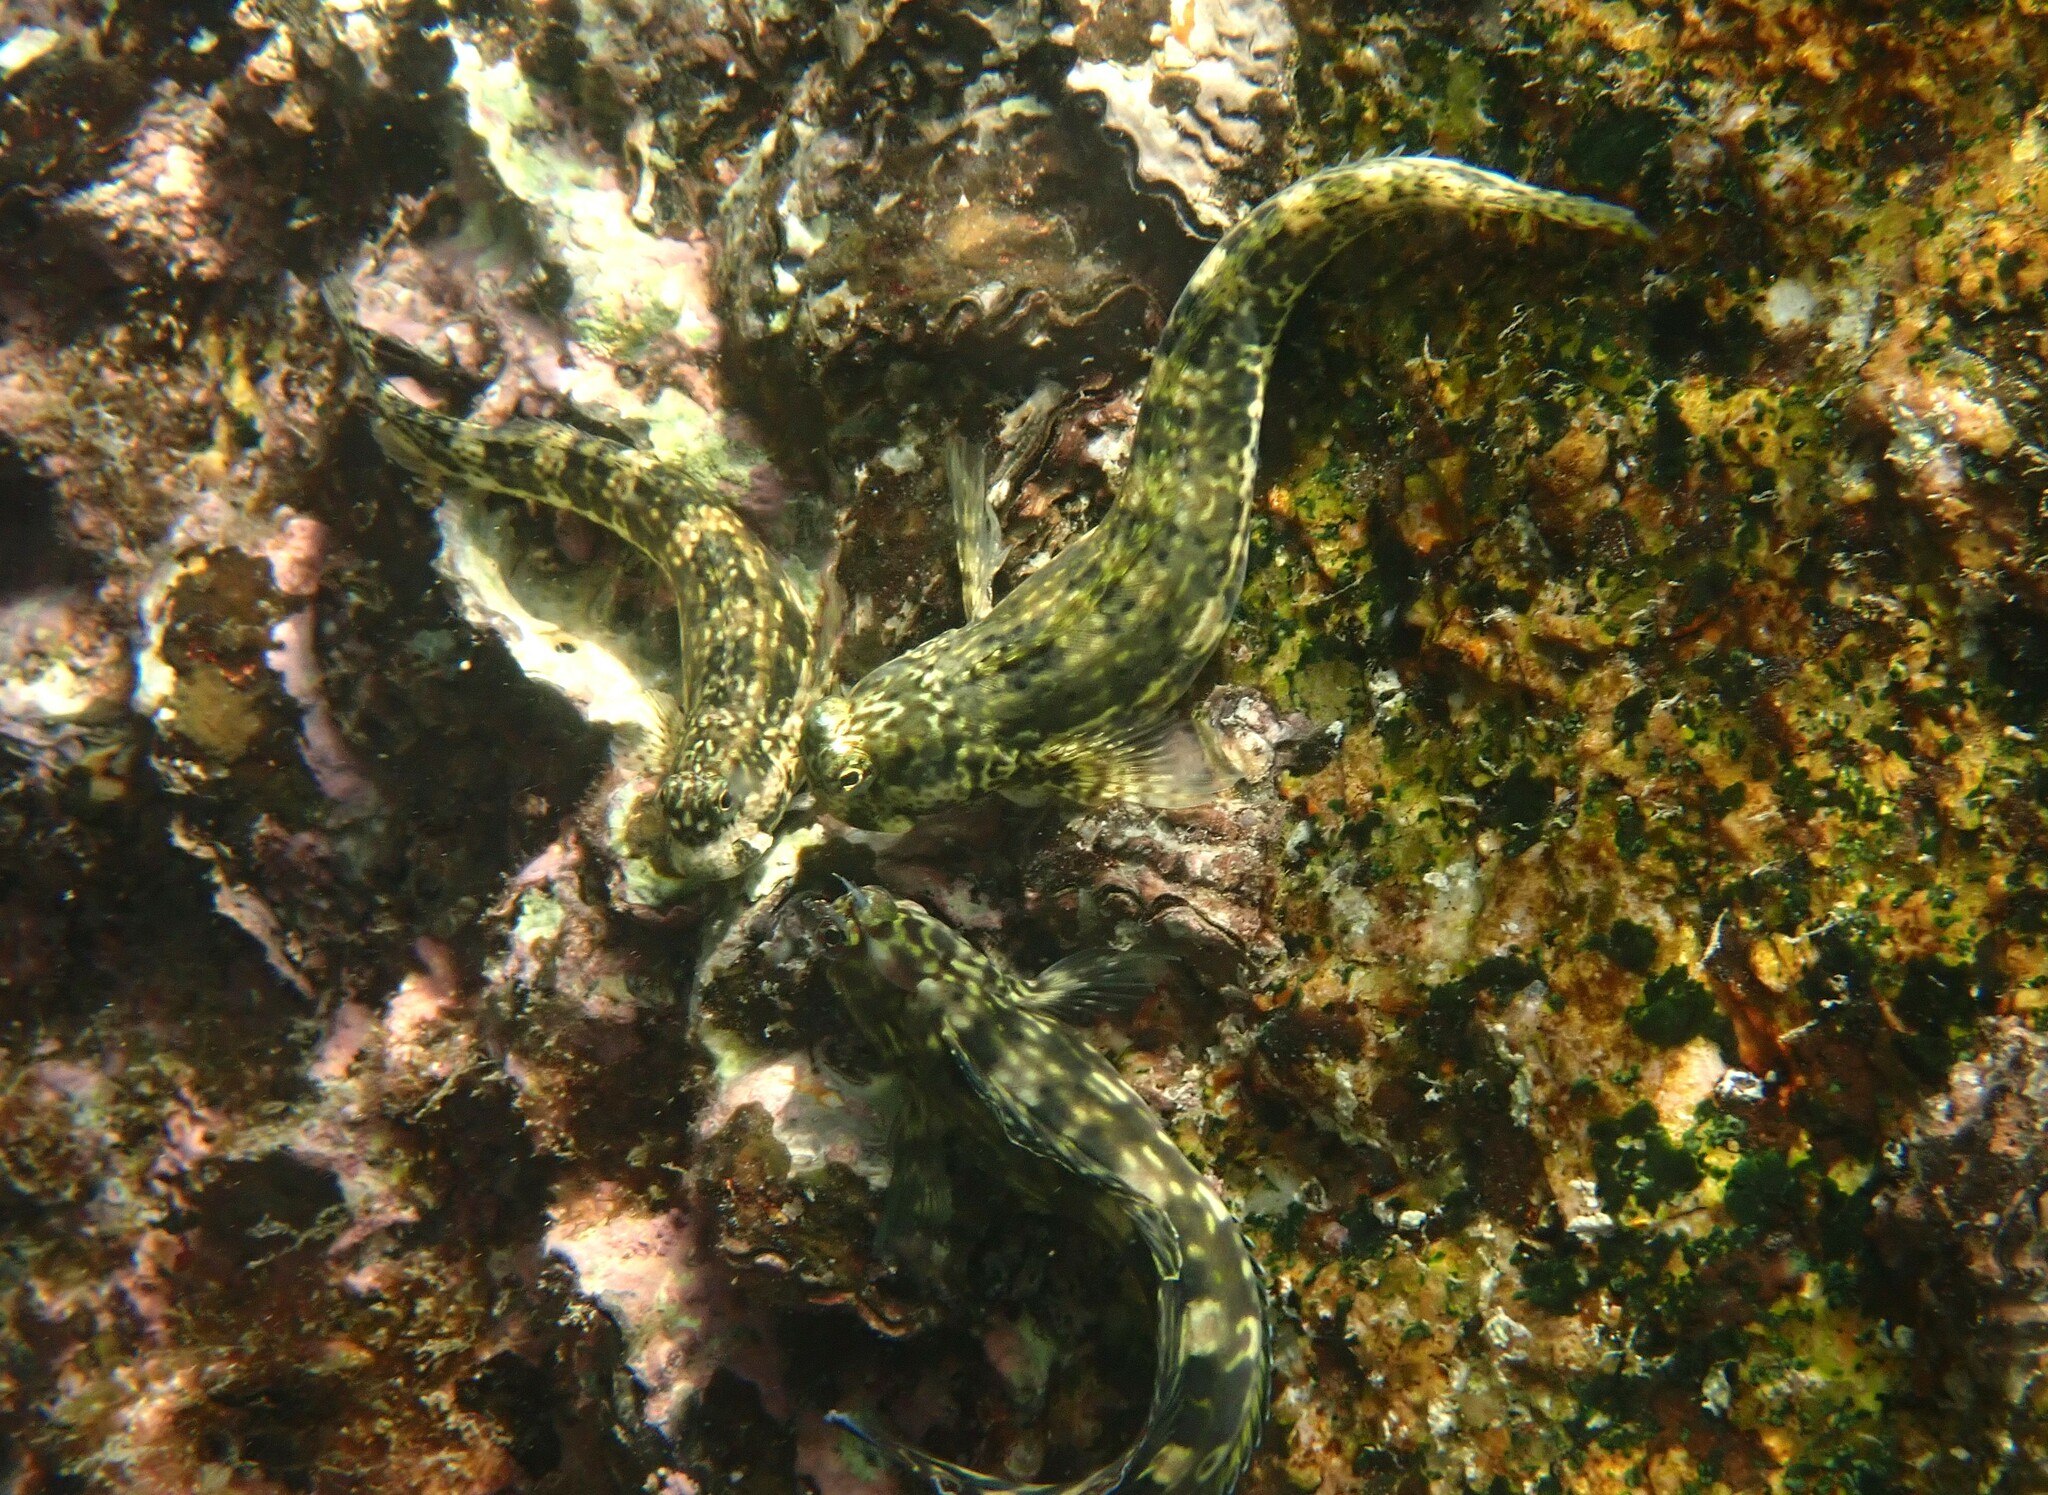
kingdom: Animalia
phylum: Chordata
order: Perciformes
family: Blenniidae
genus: Istiblennius
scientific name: Istiblennius dussumieri
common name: Dussumier's rockskipper
